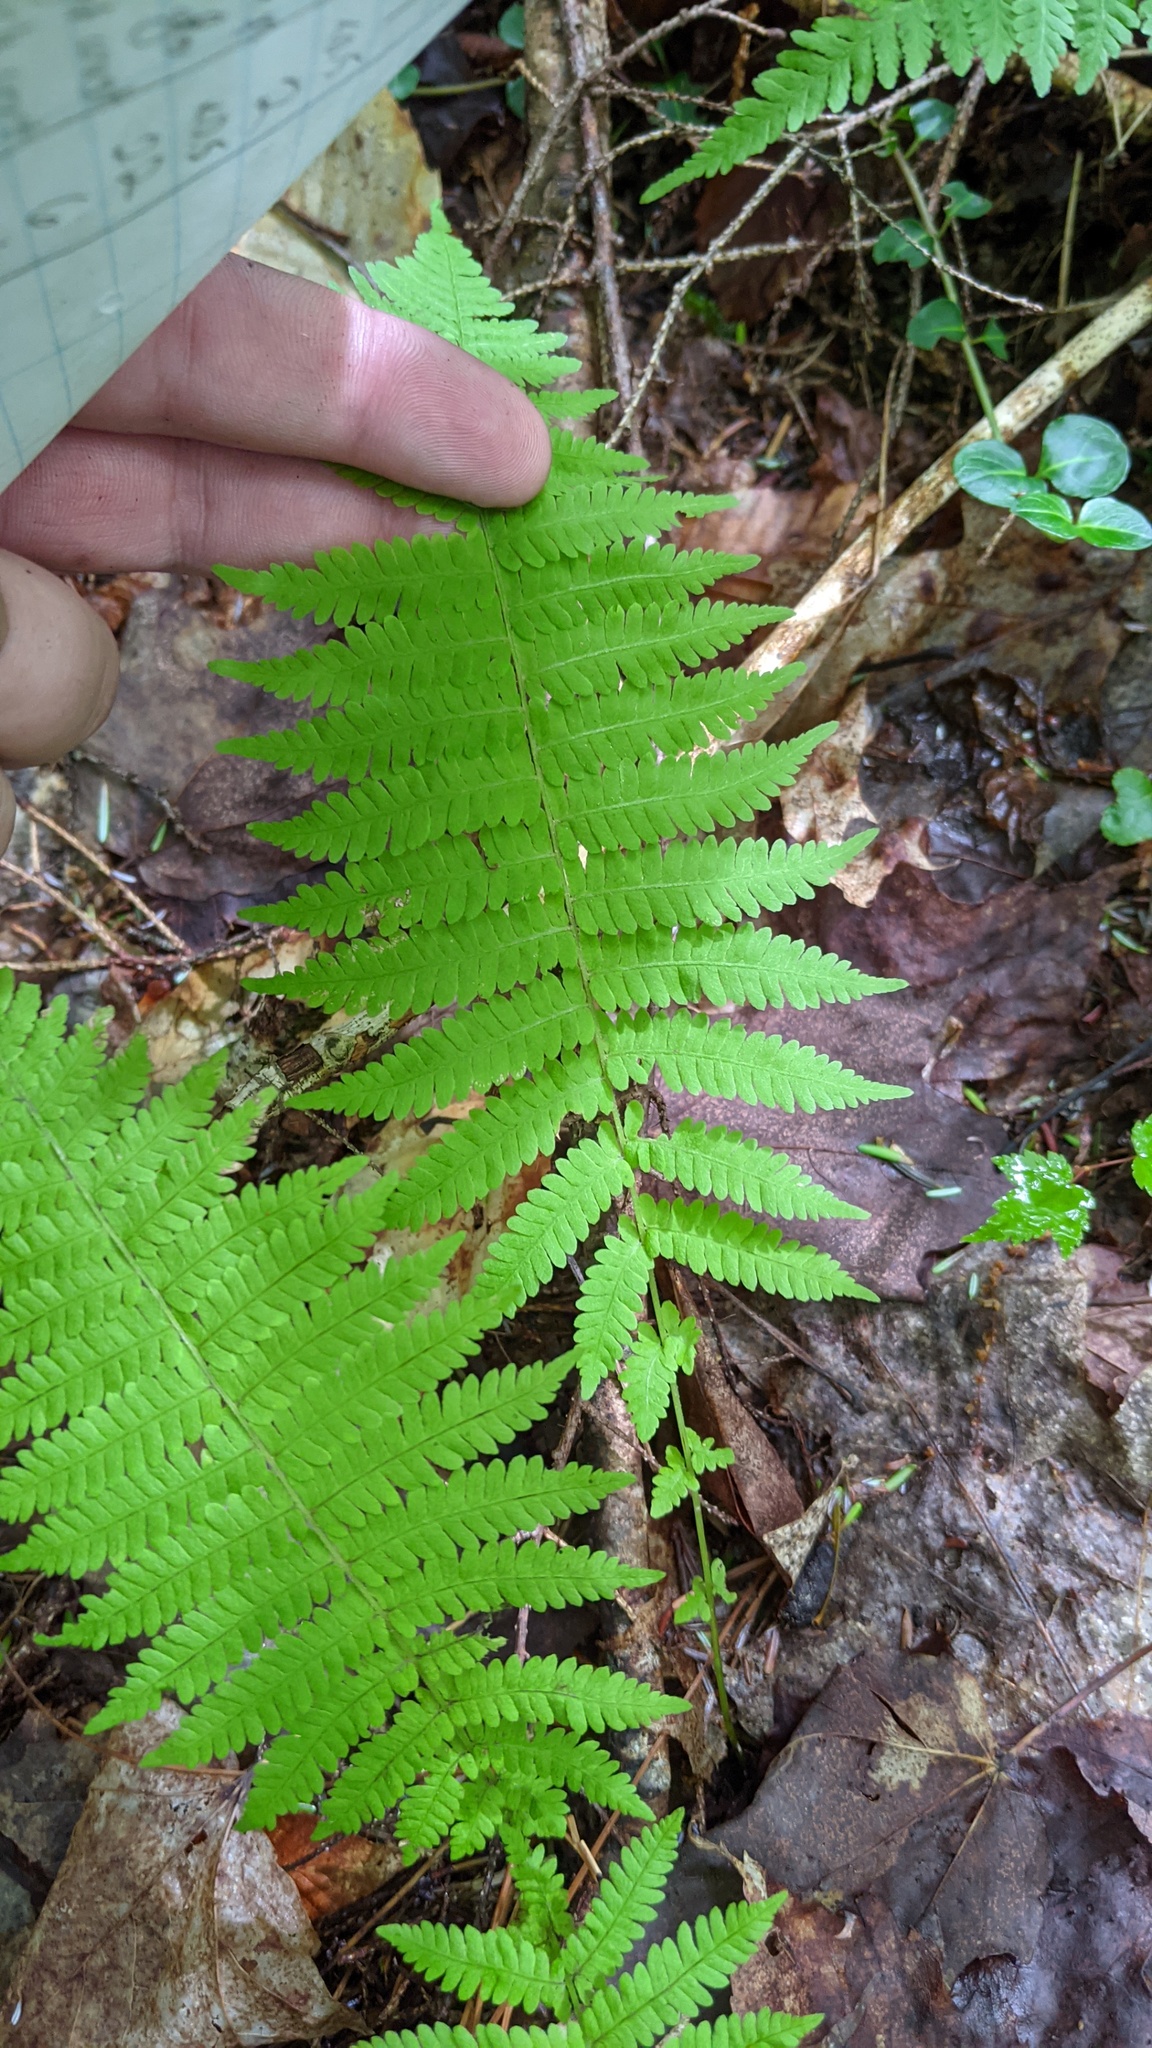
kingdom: Plantae
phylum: Tracheophyta
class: Polypodiopsida
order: Polypodiales
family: Thelypteridaceae
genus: Amauropelta
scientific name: Amauropelta noveboracensis
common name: New york fern
